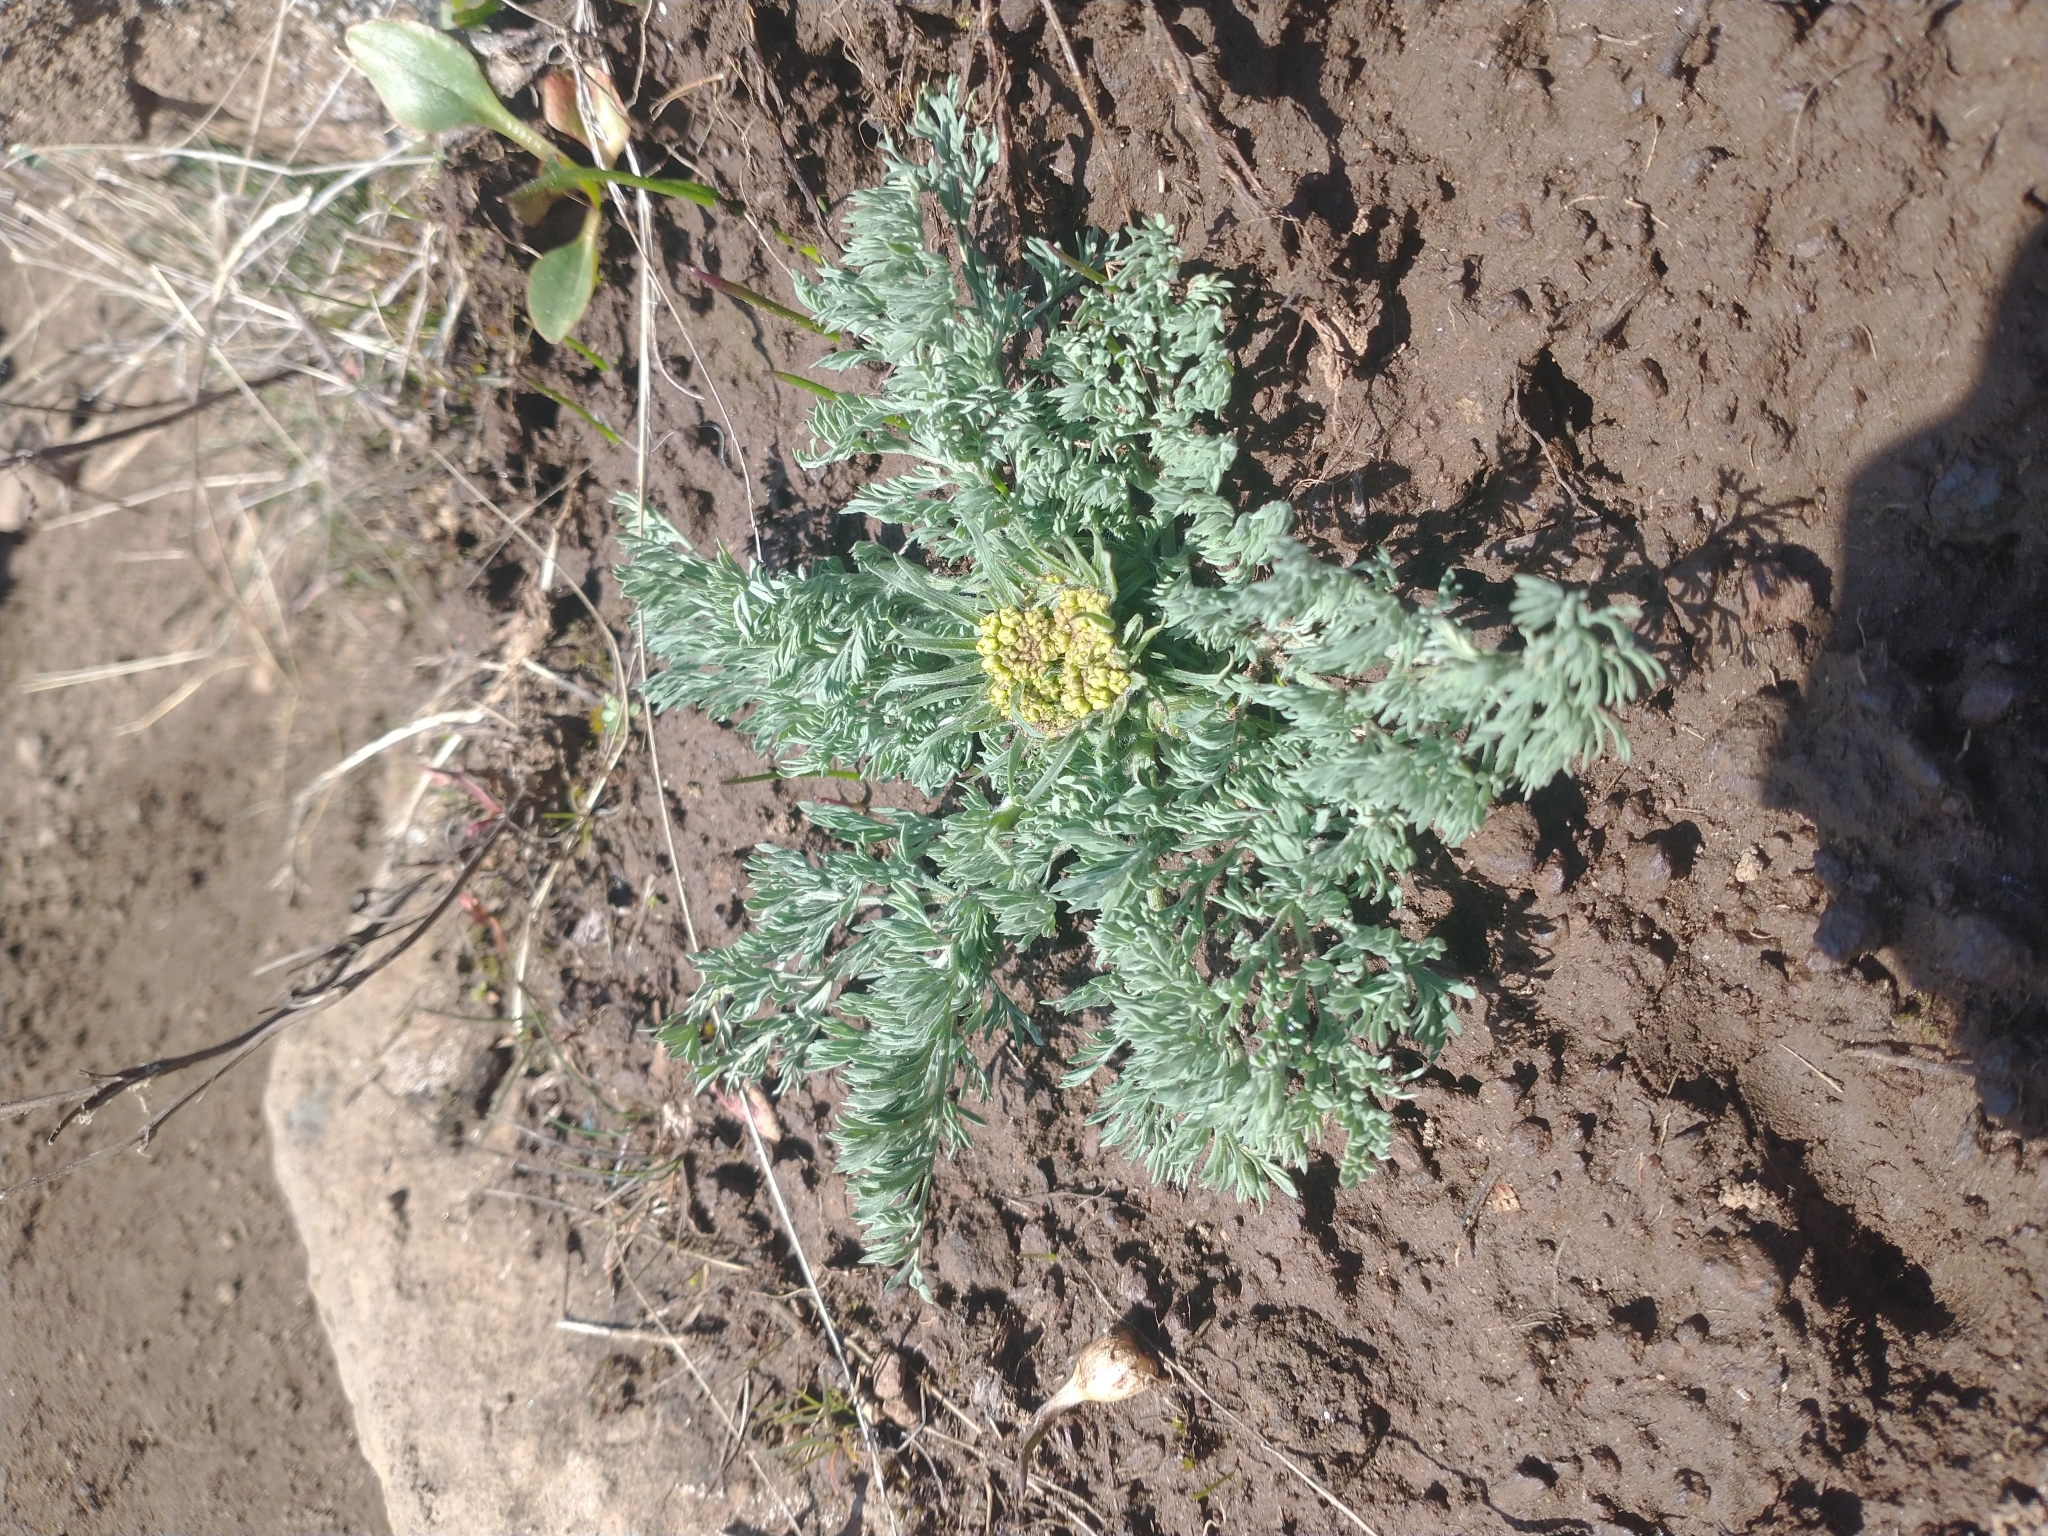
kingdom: Plantae
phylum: Tracheophyta
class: Magnoliopsida
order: Apiales
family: Apiaceae
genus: Lomatium
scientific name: Lomatium macrocarpum
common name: Big-seed biscuitroot
